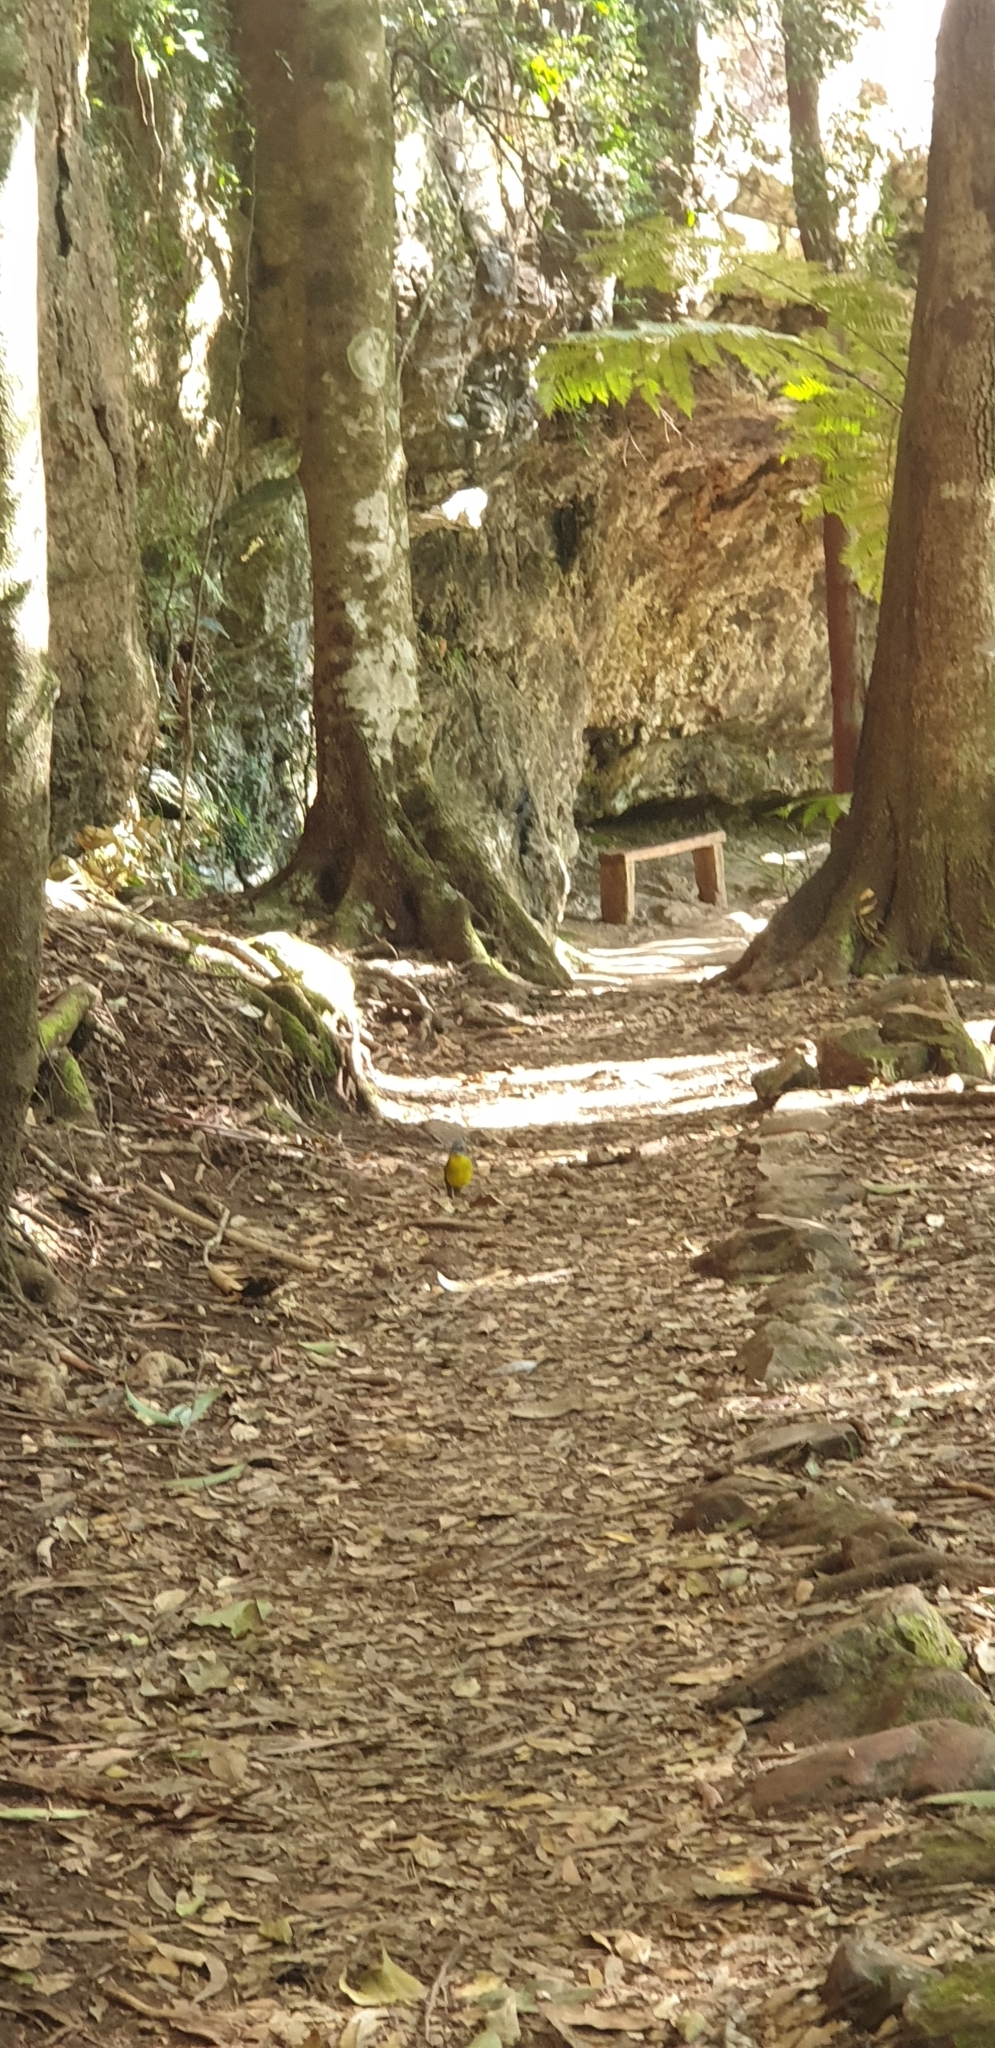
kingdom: Animalia
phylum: Chordata
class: Aves
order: Passeriformes
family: Petroicidae
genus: Eopsaltria
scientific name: Eopsaltria australis
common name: Eastern yellow robin
